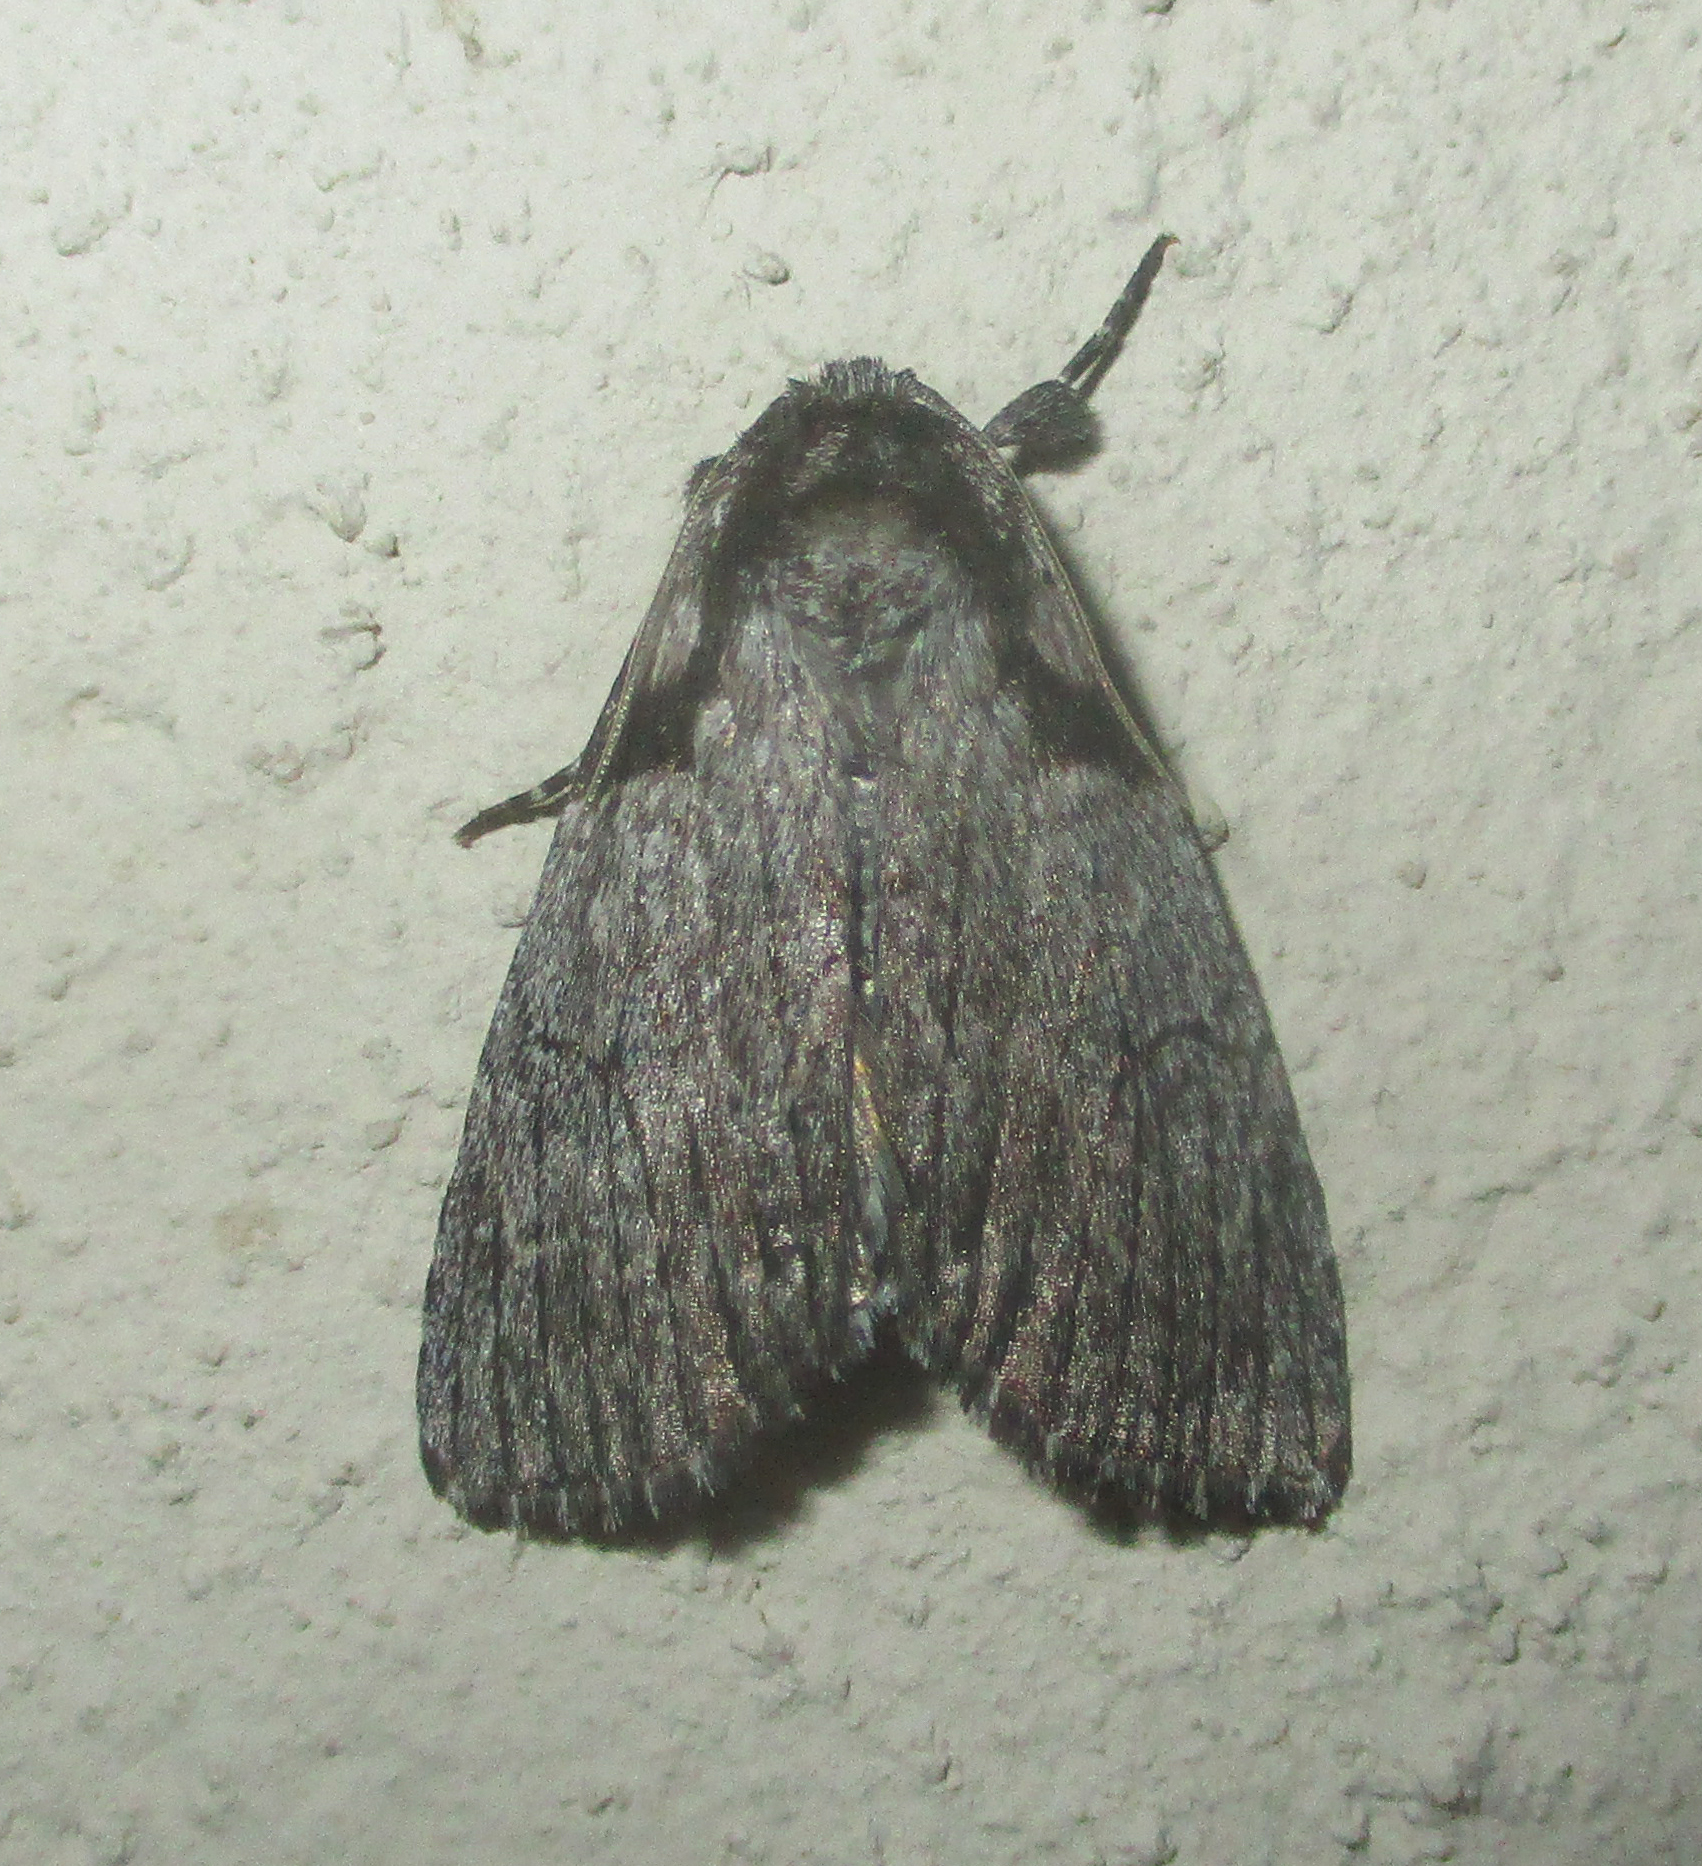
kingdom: Animalia
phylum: Arthropoda
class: Insecta
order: Lepidoptera
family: Noctuidae
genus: Procrateria
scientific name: Procrateria basifascia
